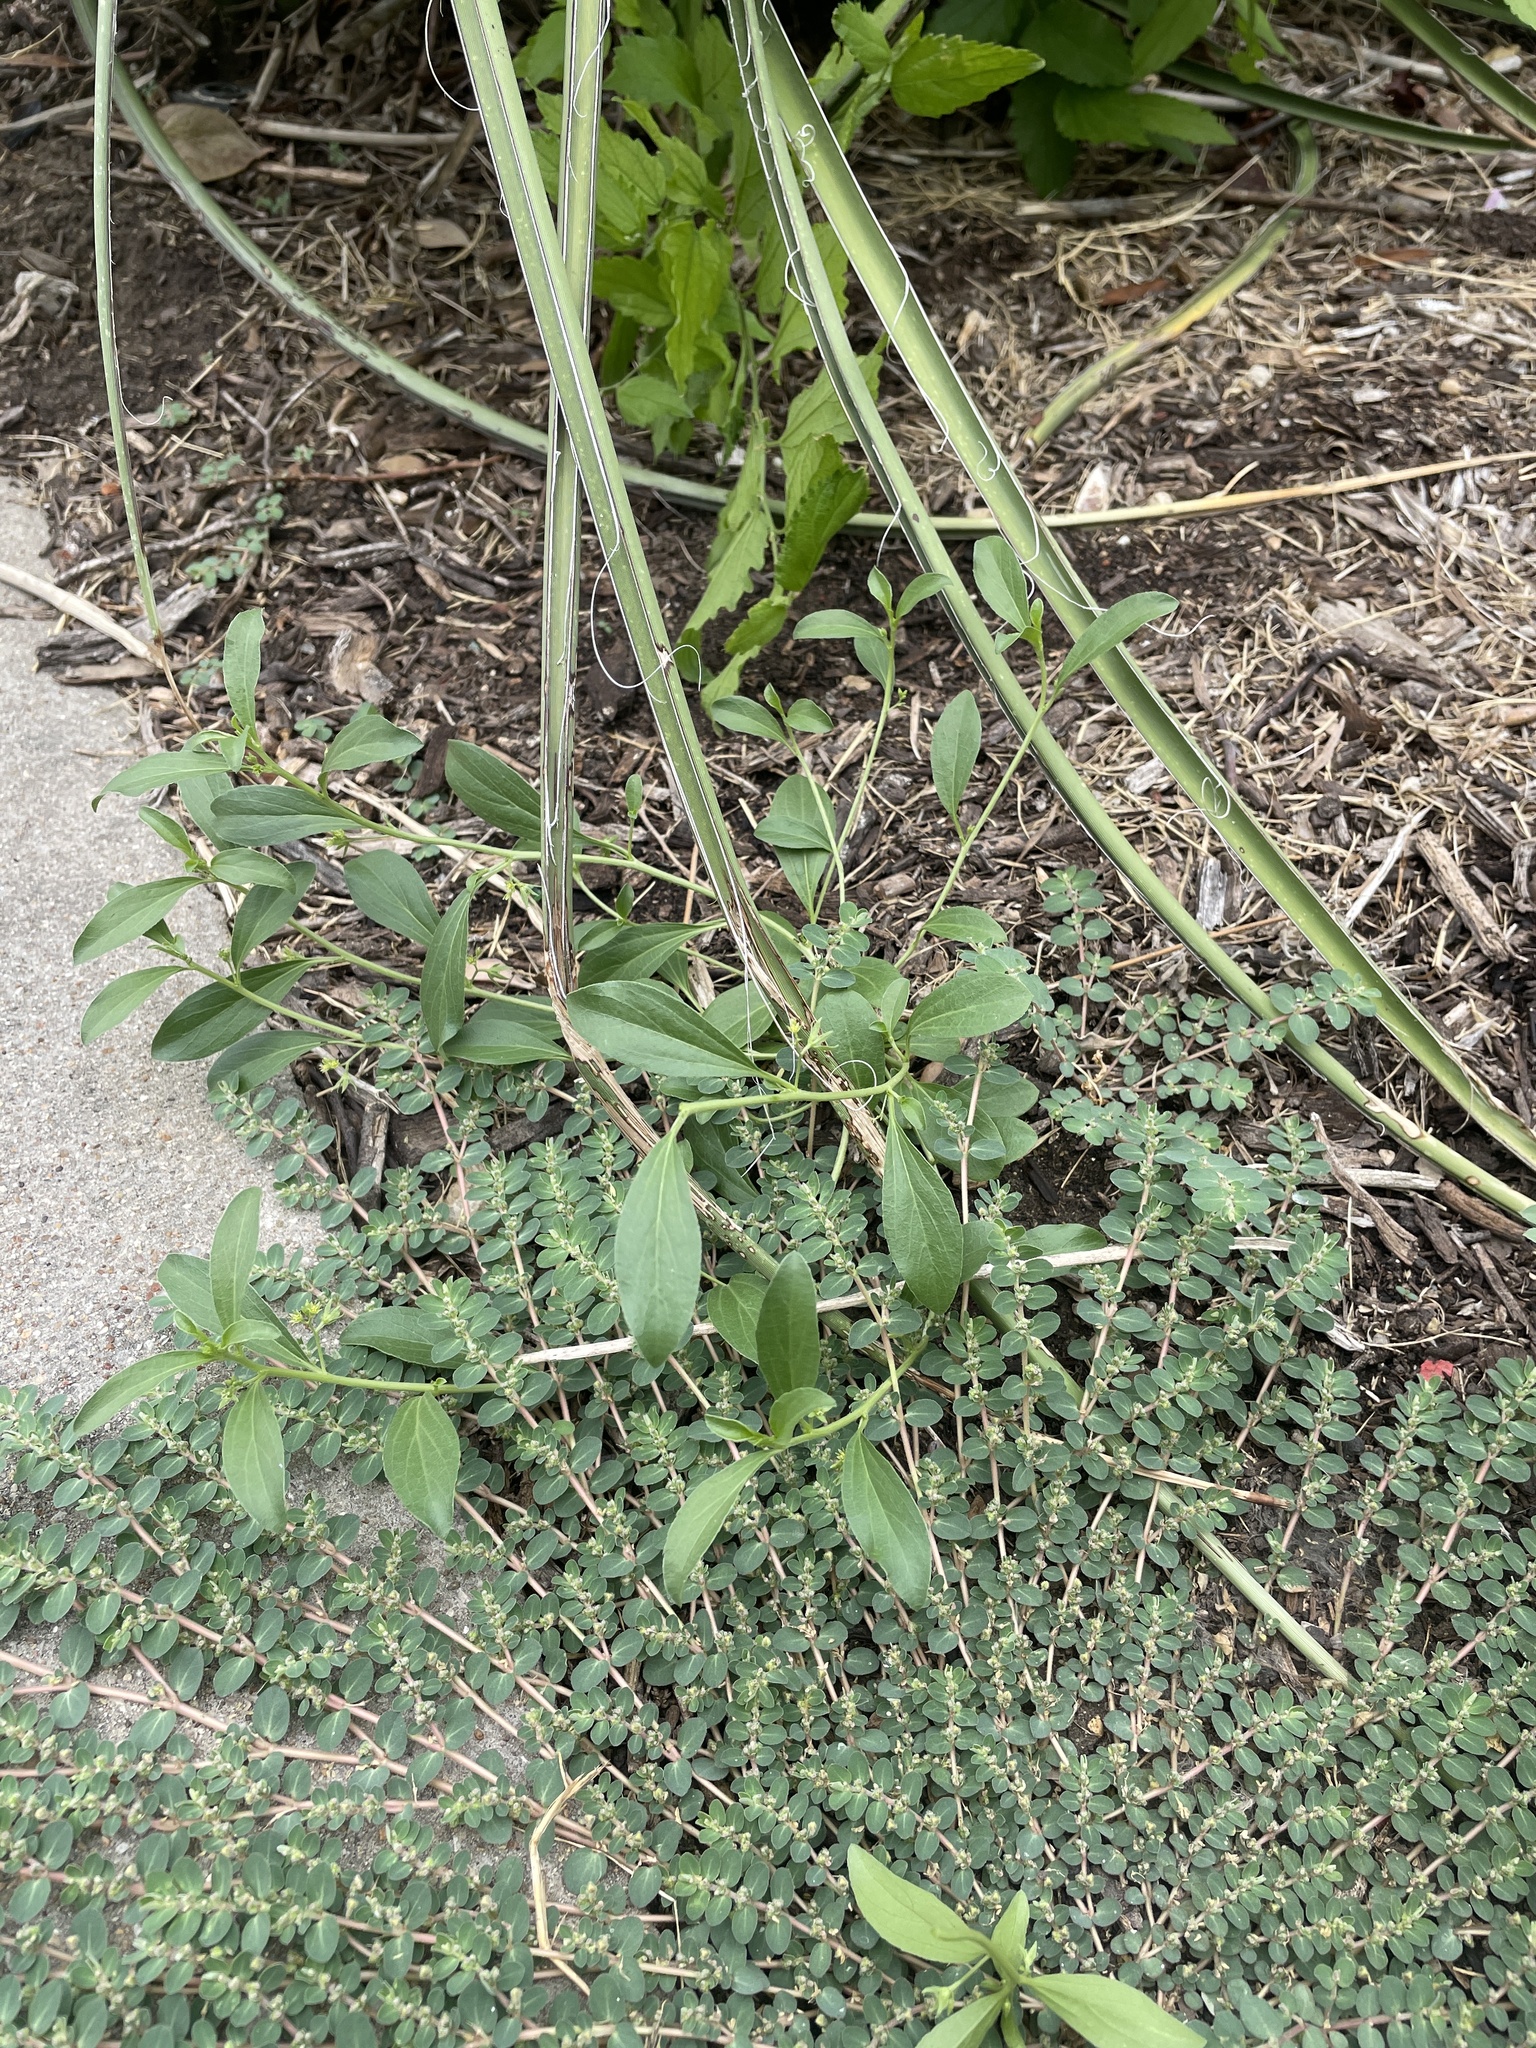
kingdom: Plantae
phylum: Tracheophyta
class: Magnoliopsida
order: Malpighiales
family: Euphorbiaceae
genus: Ditaxis
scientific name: Ditaxis humilis
